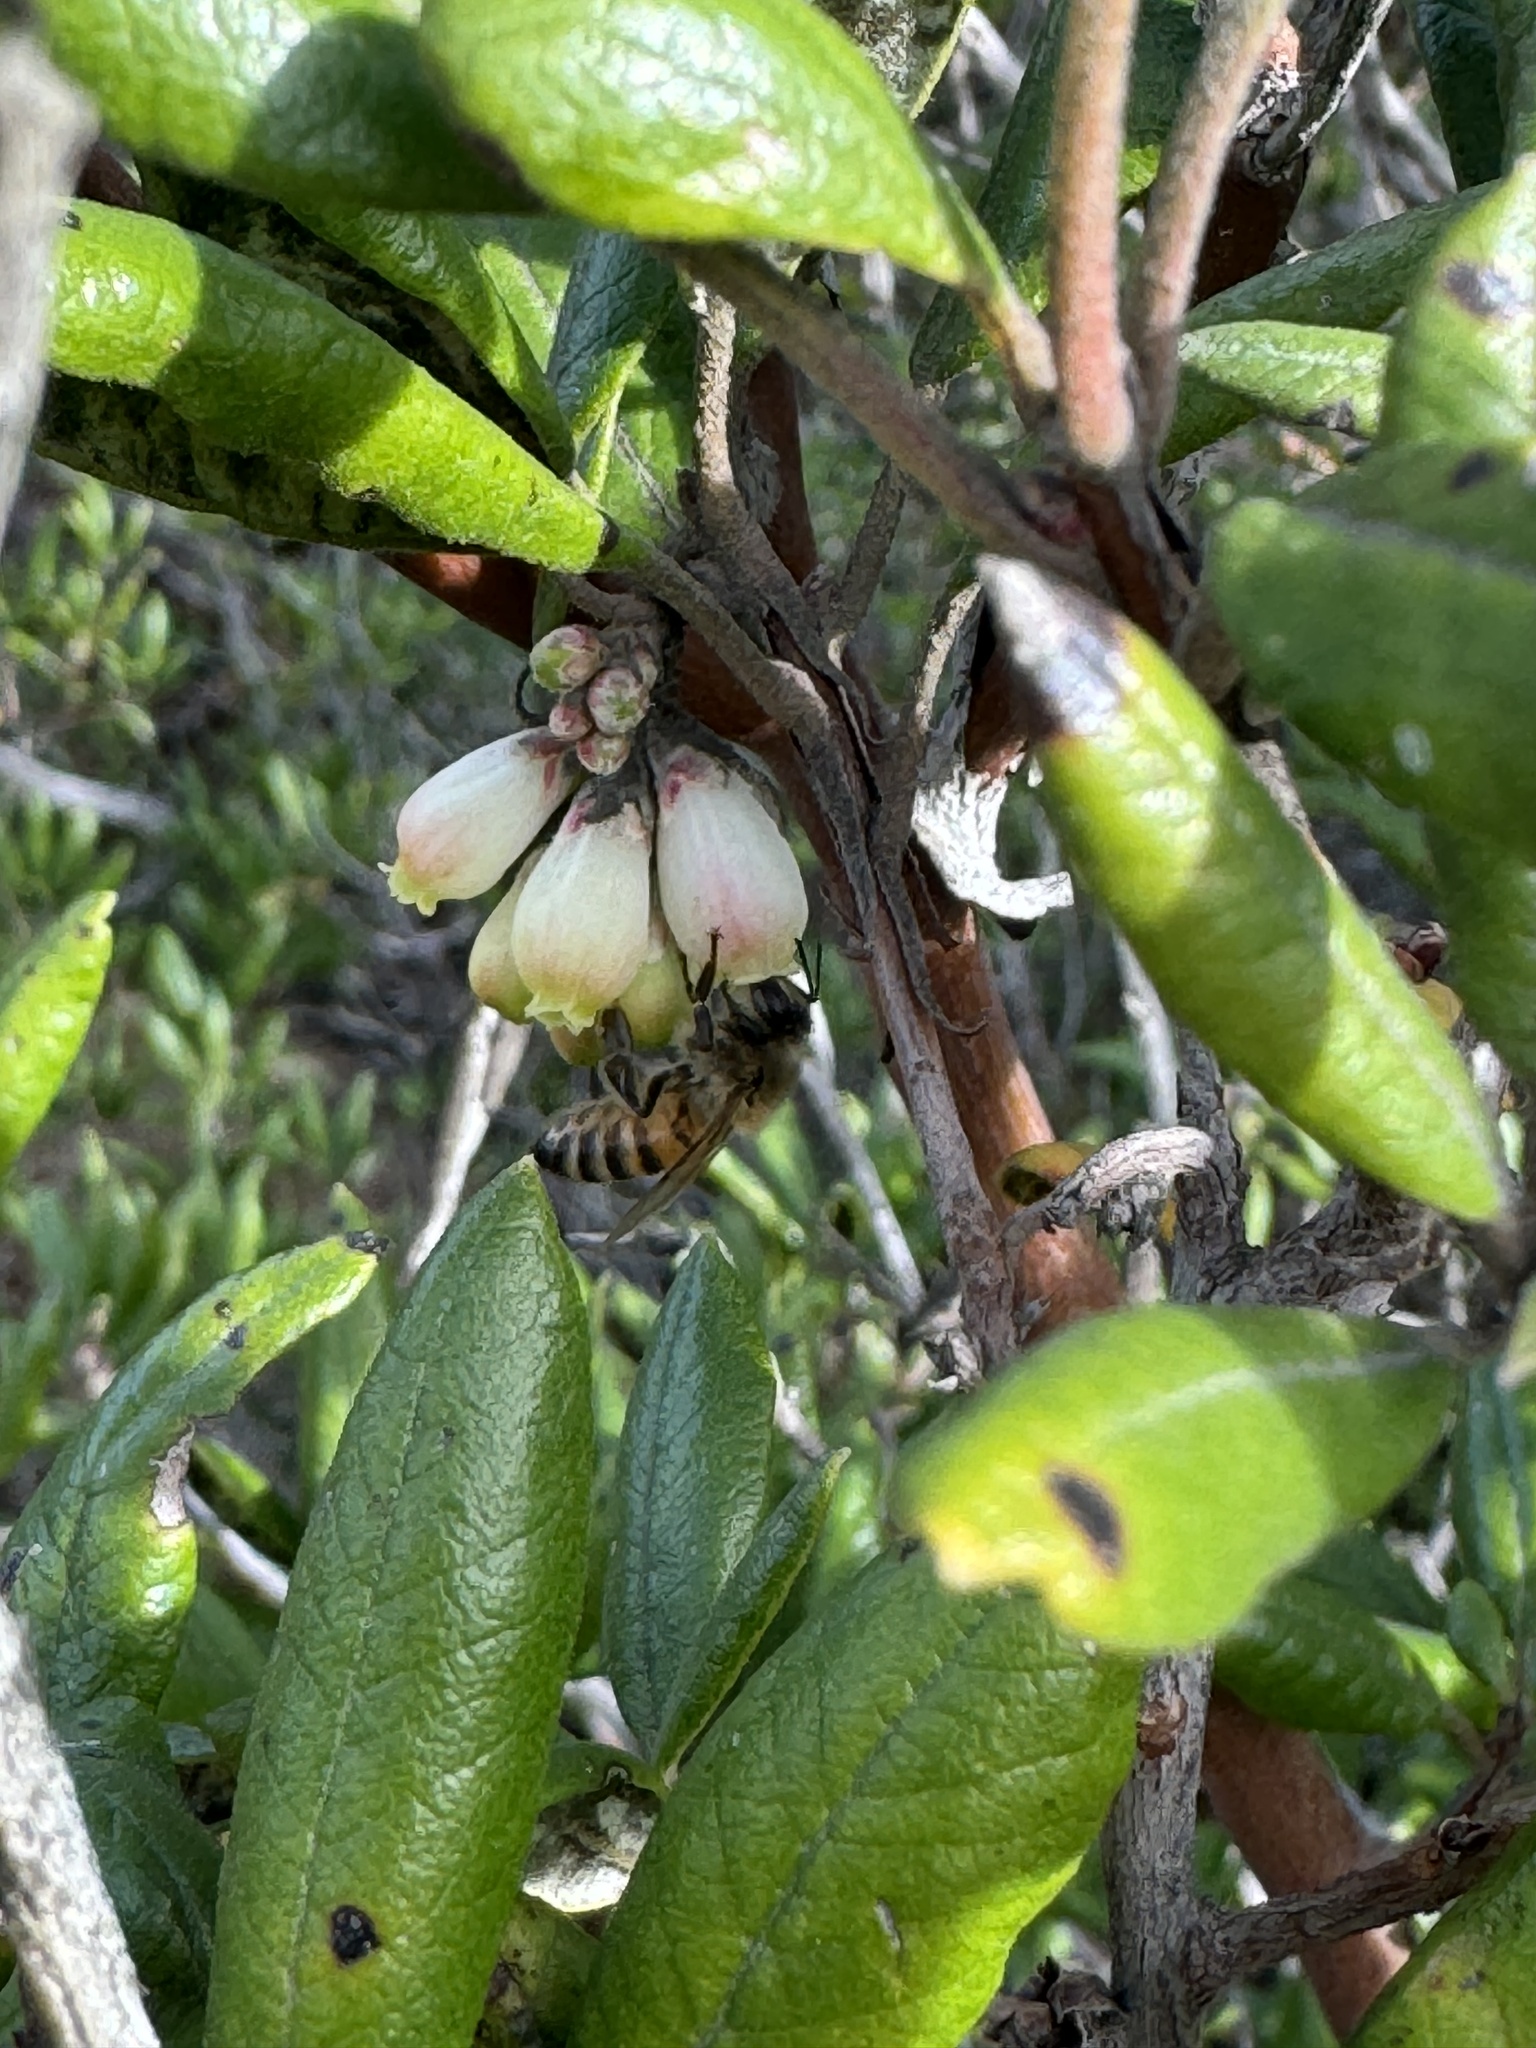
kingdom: Animalia
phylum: Arthropoda
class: Insecta
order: Hymenoptera
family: Apidae
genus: Apis
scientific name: Apis mellifera
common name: Honey bee
